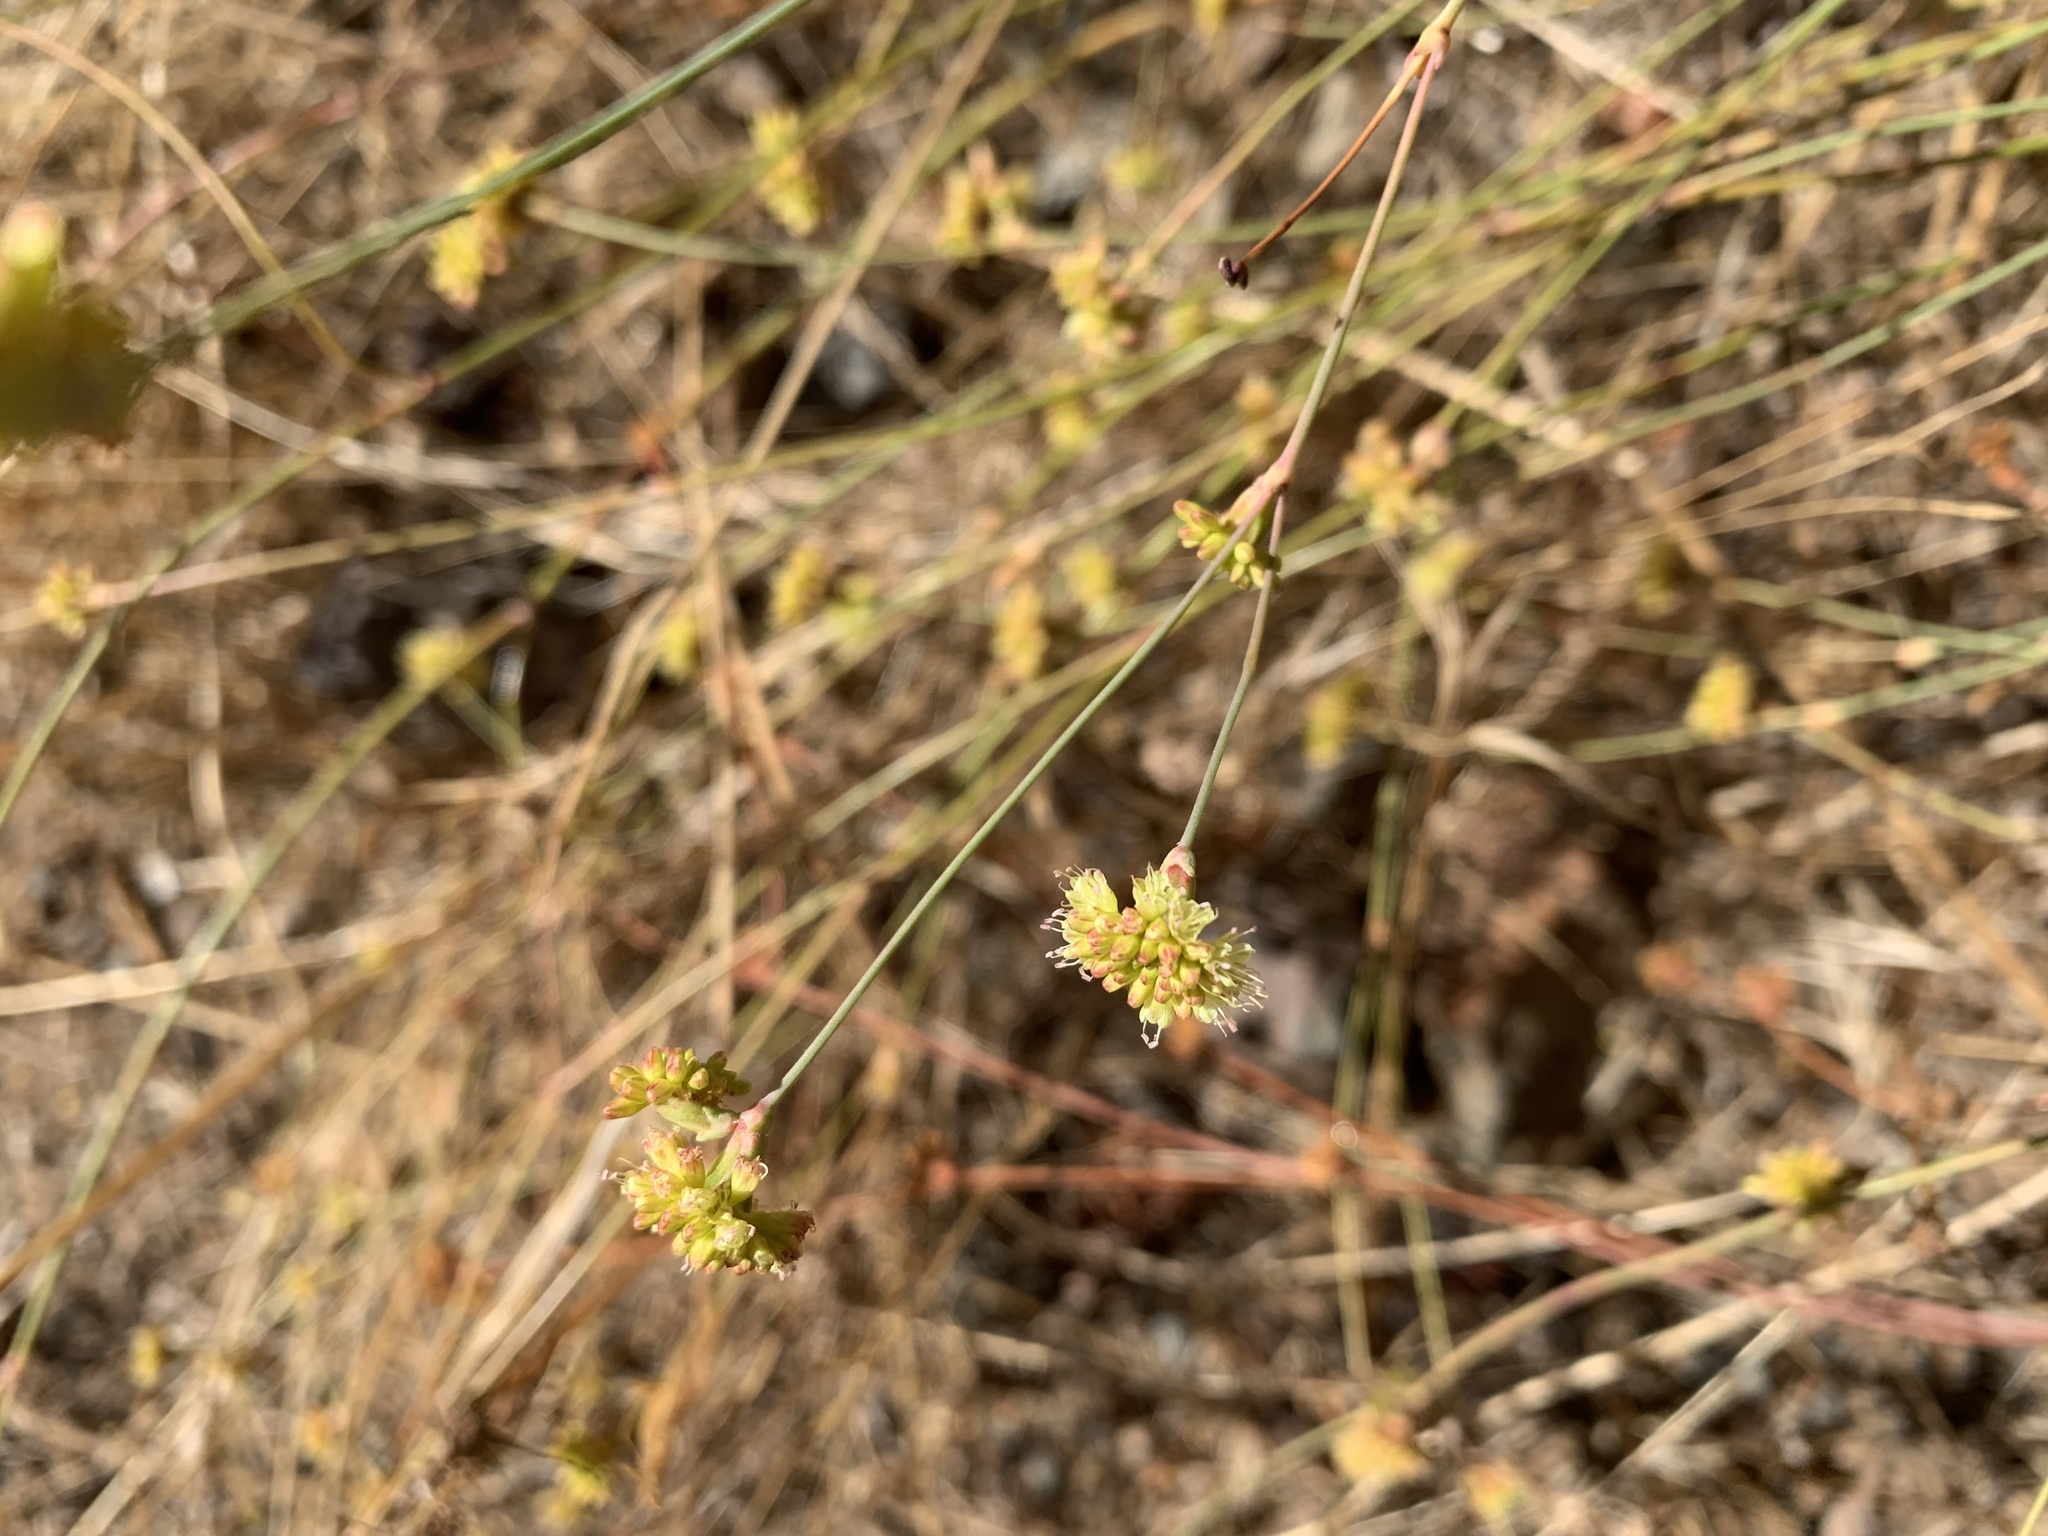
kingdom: Plantae
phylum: Tracheophyta
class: Magnoliopsida
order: Caryophyllales
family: Polygonaceae
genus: Eriogonum
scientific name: Eriogonum nudum
